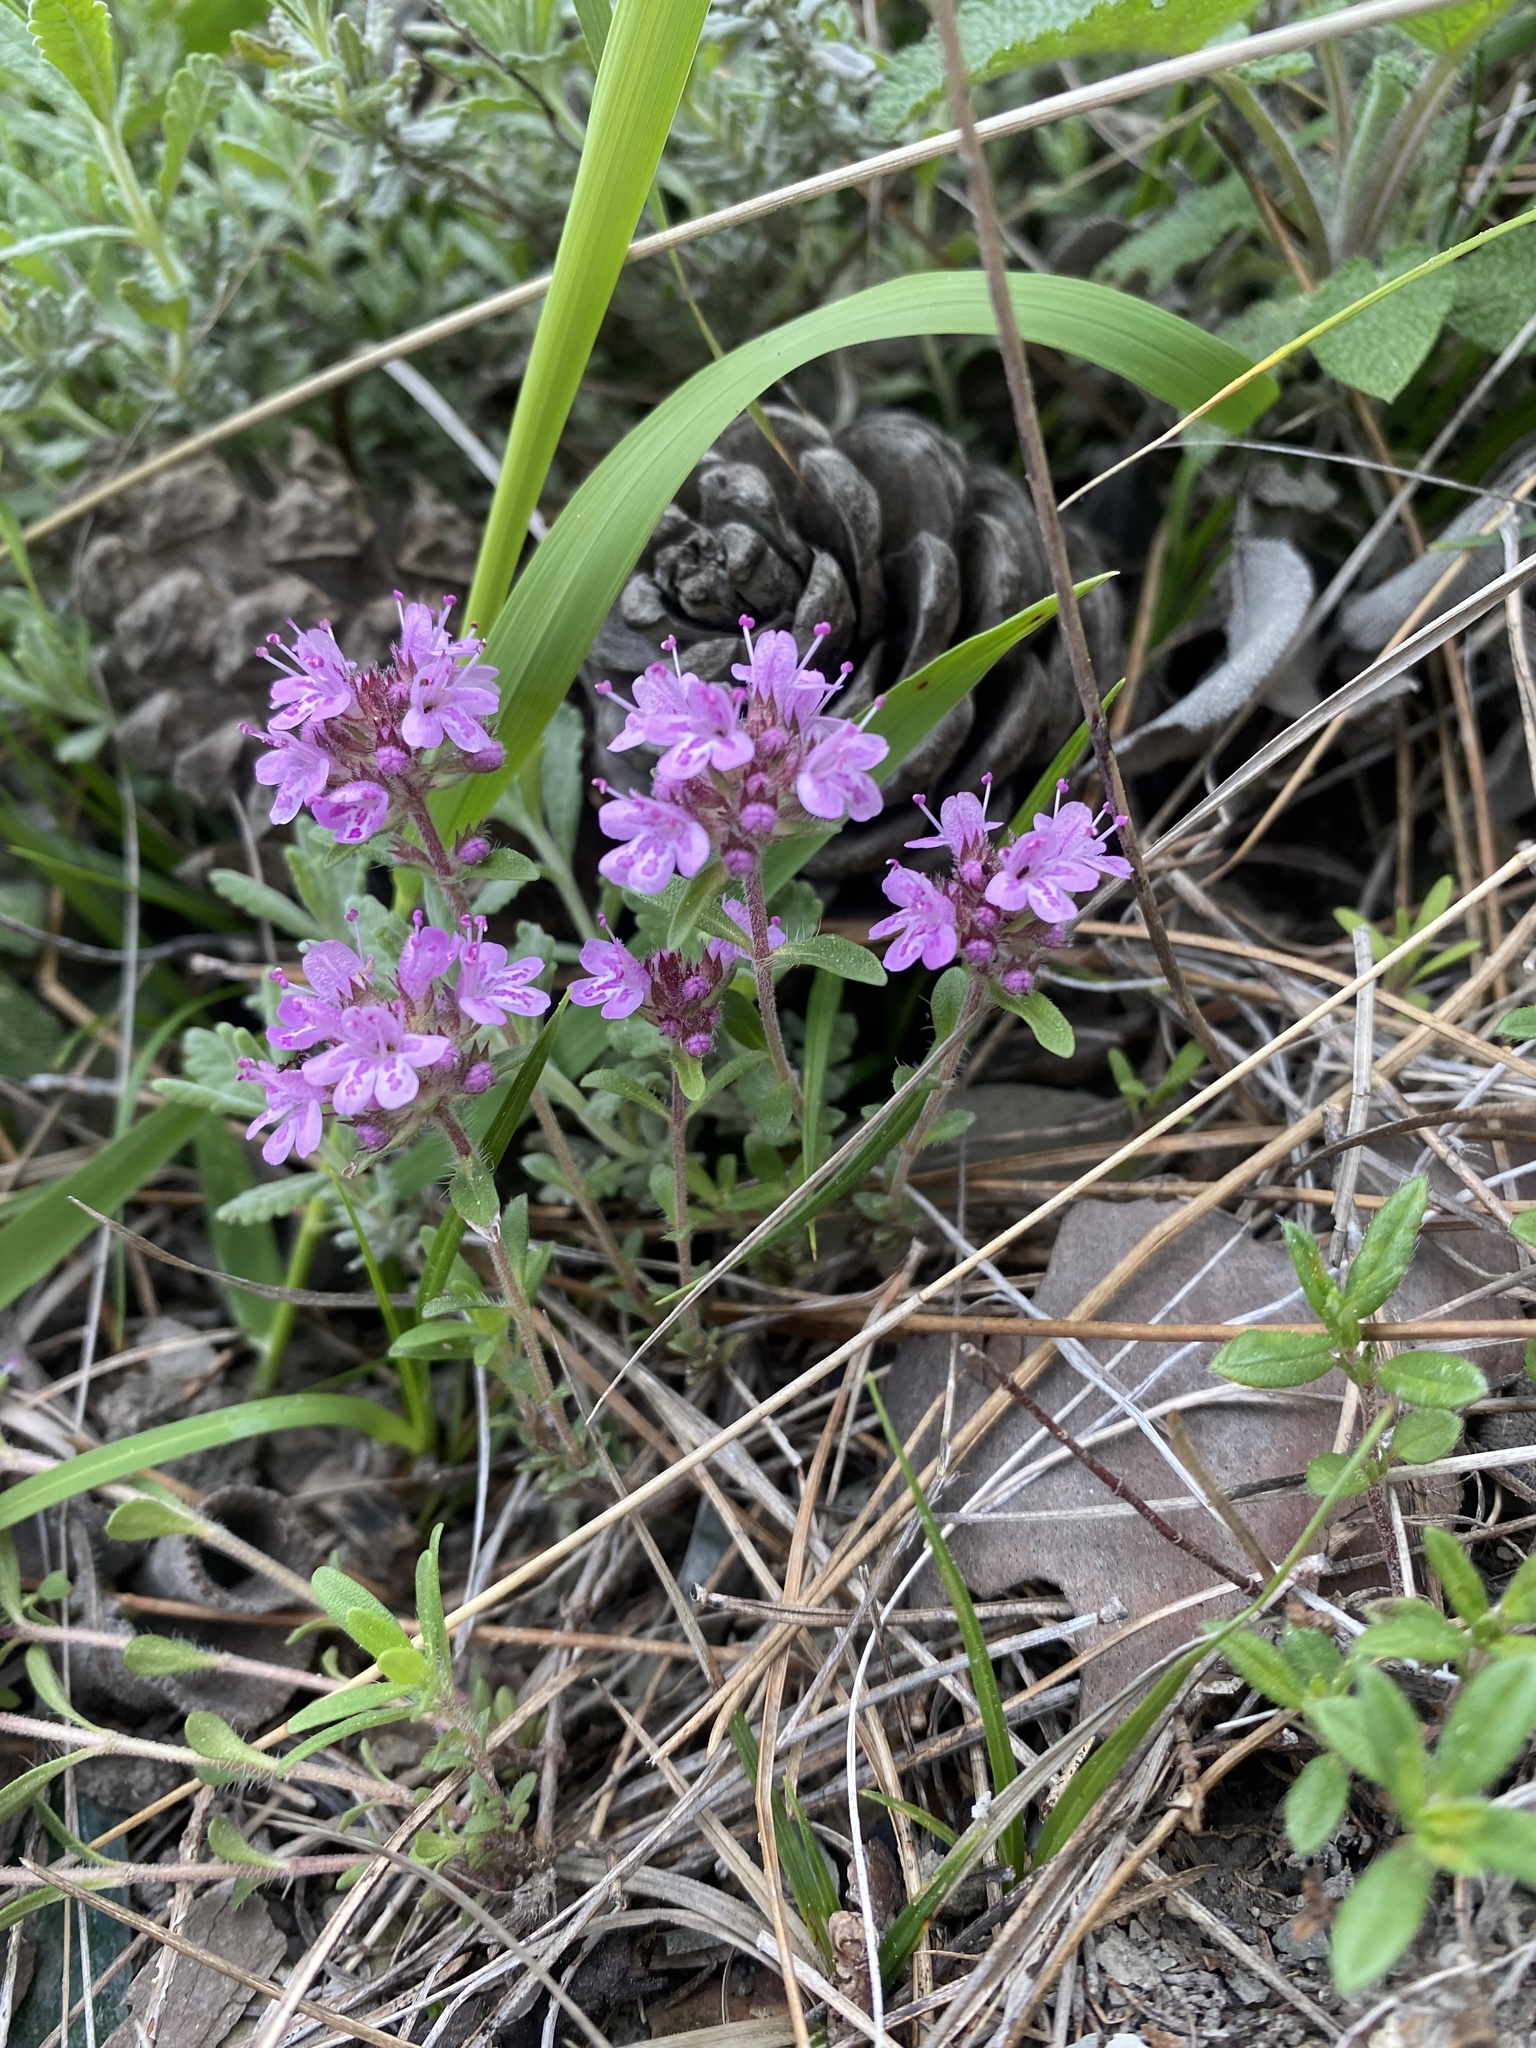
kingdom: Plantae
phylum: Tracheophyta
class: Magnoliopsida
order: Lamiales
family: Lamiaceae
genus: Thymus
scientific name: Thymus pannonicus
